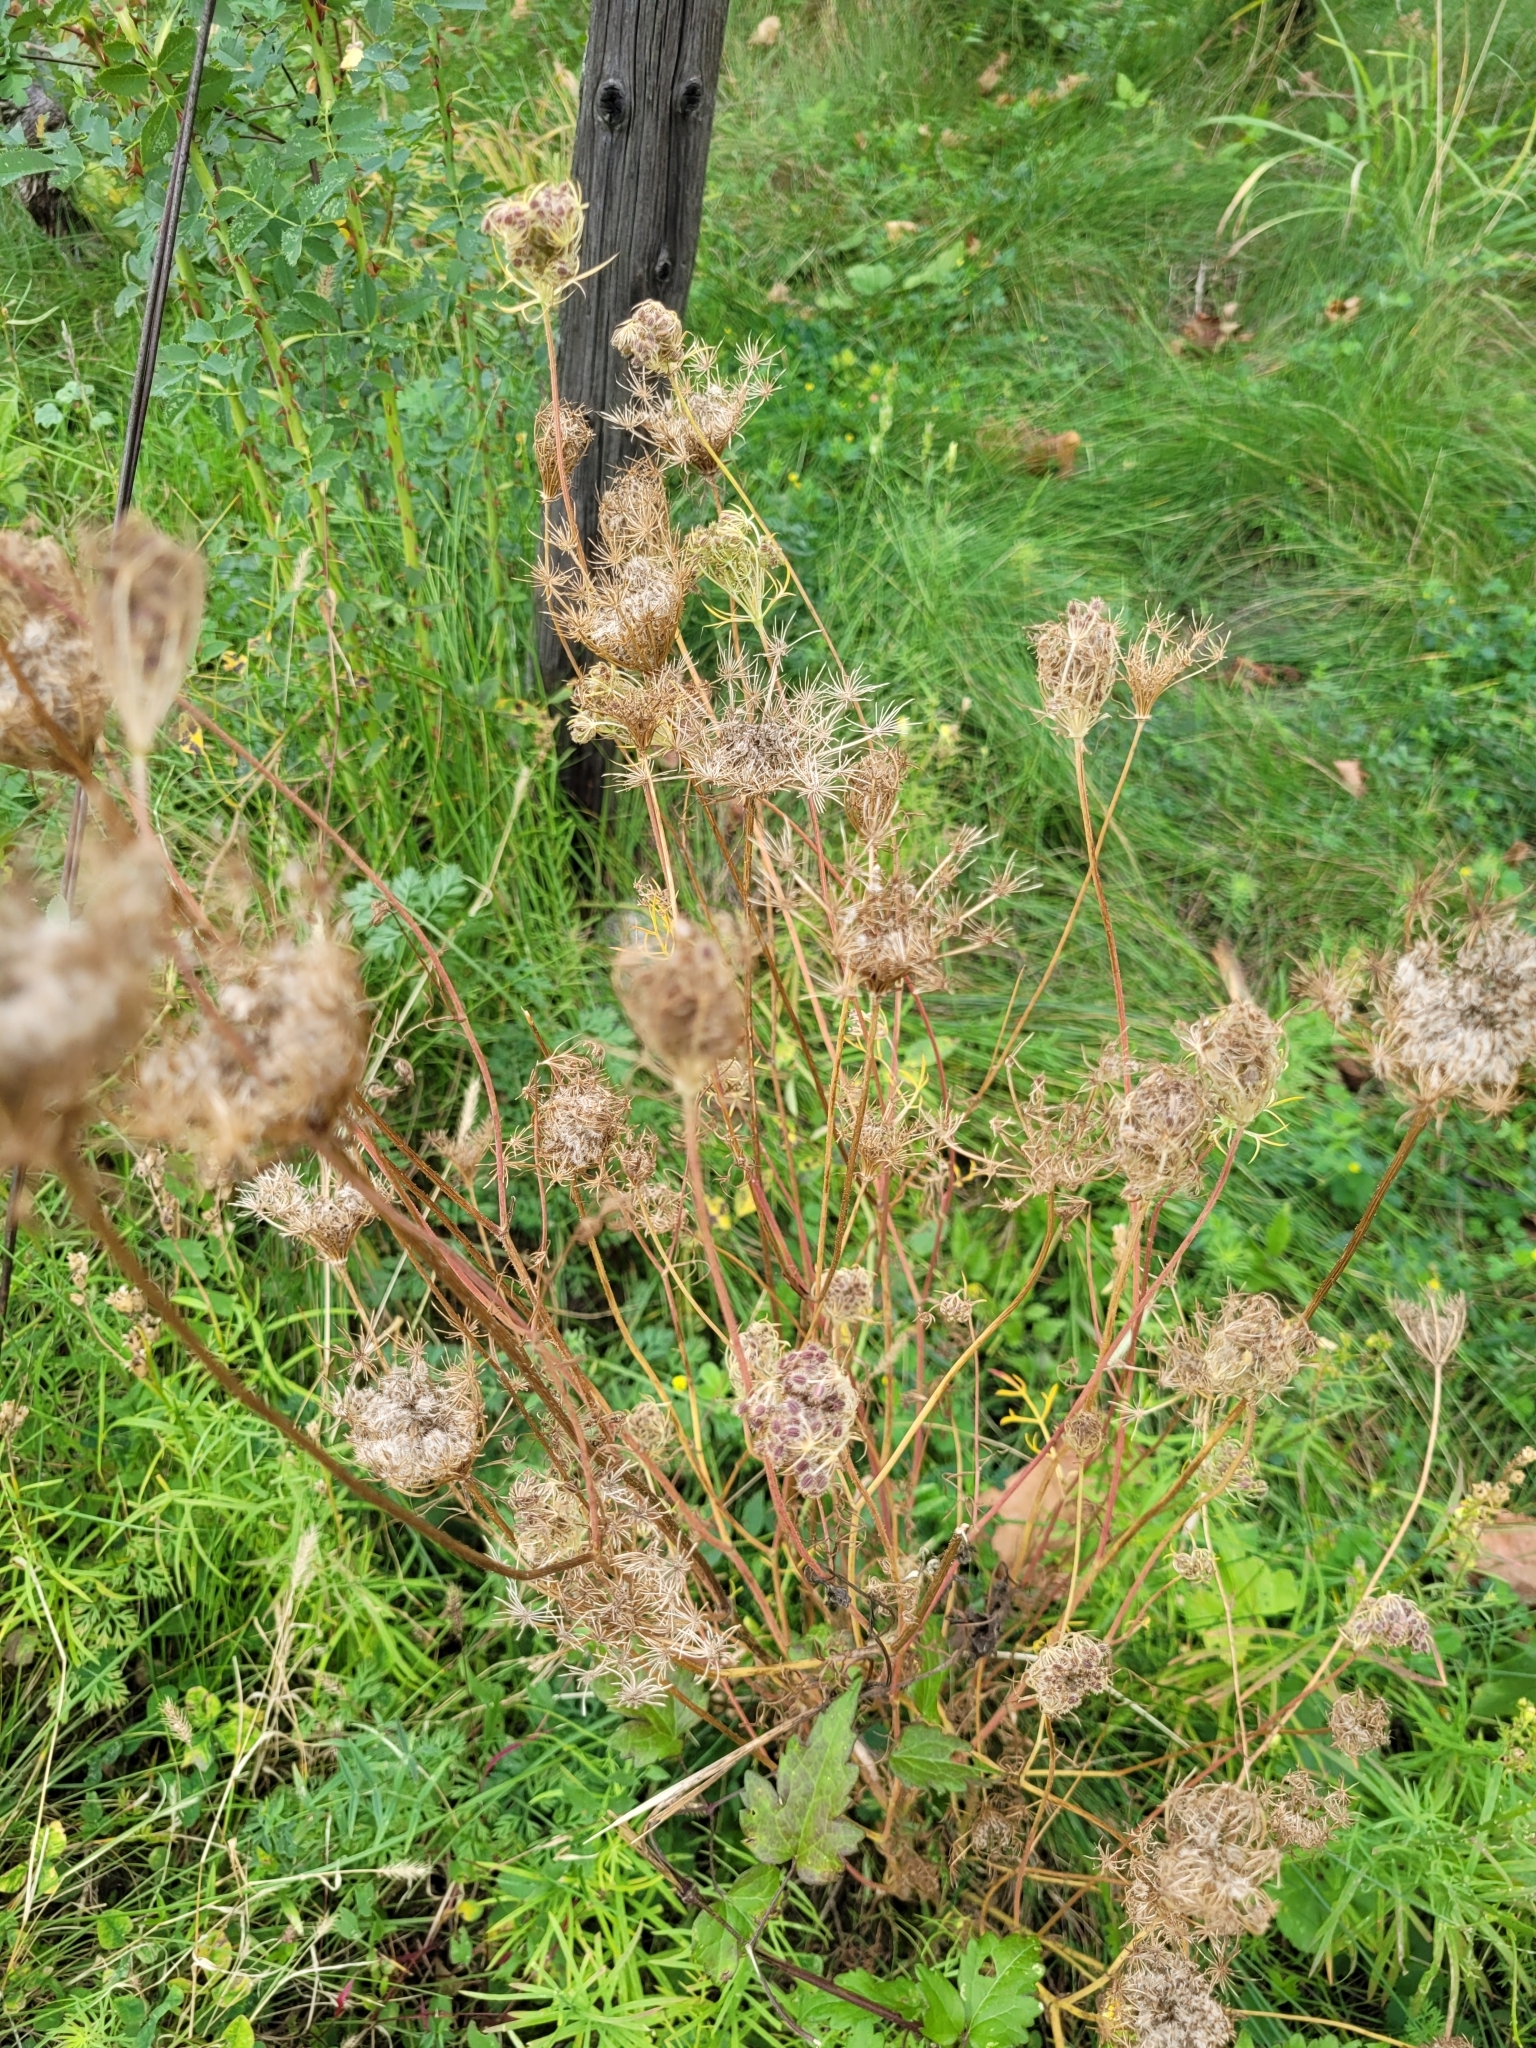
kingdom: Plantae
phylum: Tracheophyta
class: Magnoliopsida
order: Apiales
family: Apiaceae
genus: Daucus
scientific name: Daucus carota
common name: Wild carrot
